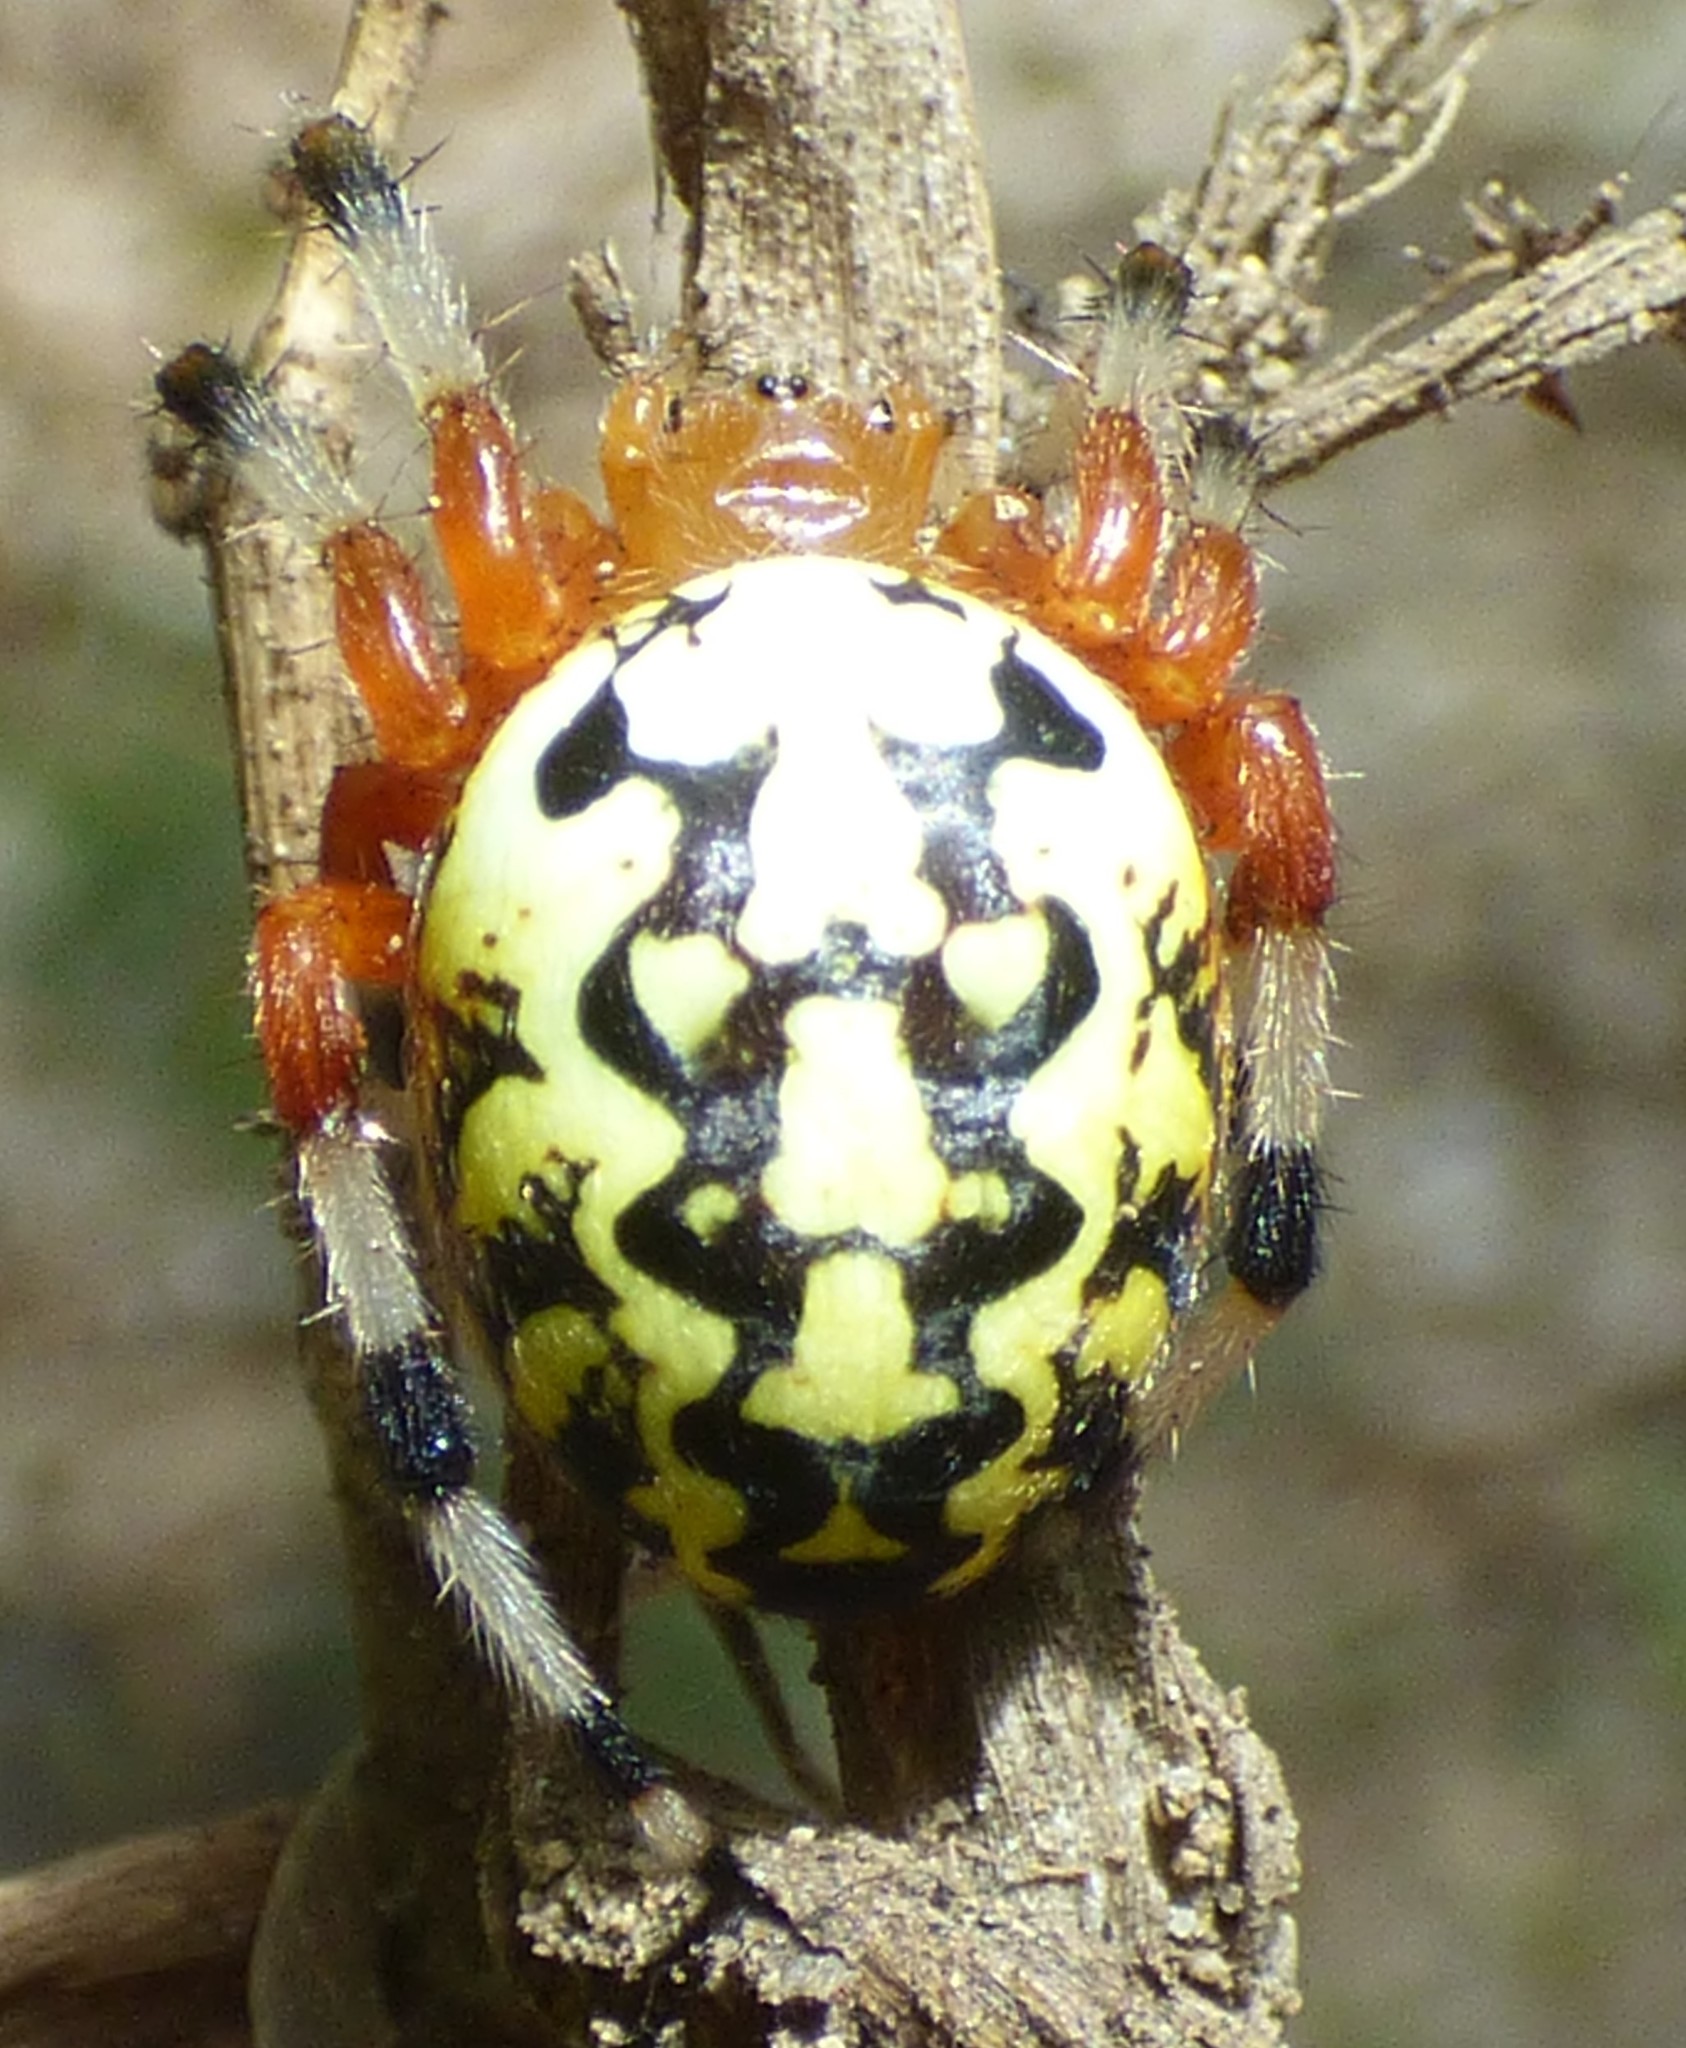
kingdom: Animalia
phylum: Arthropoda
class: Arachnida
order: Araneae
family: Araneidae
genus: Araneus
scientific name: Araneus marmoreus
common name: Marbled orbweaver
